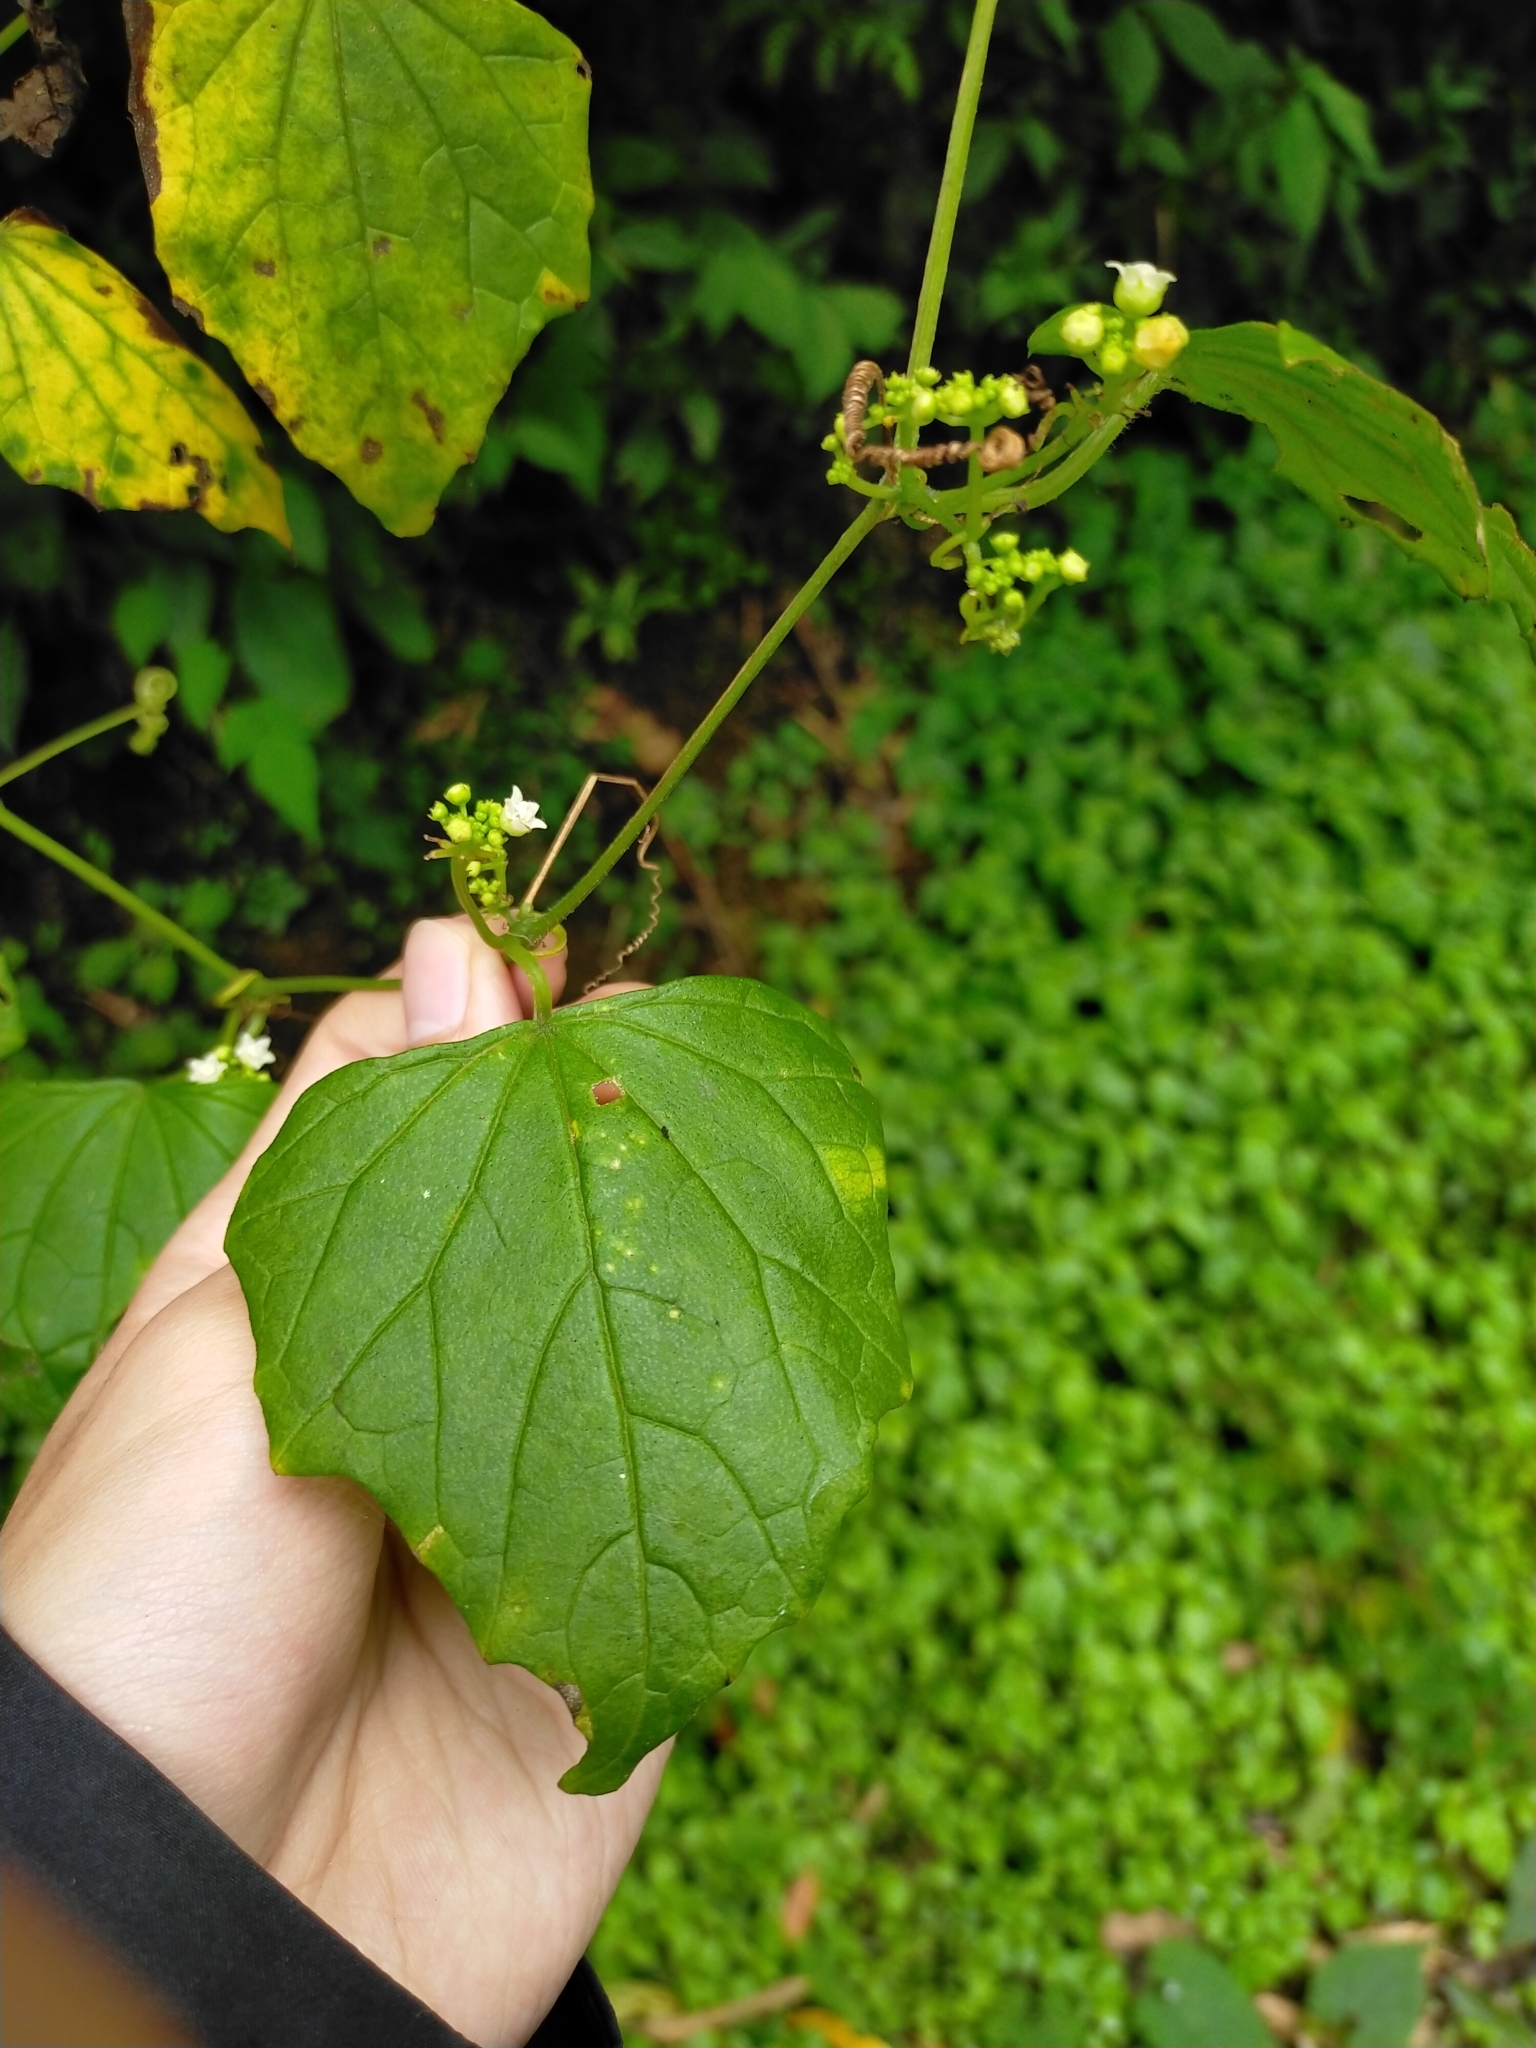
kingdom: Plantae
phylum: Tracheophyta
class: Magnoliopsida
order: Cucurbitales
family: Cucurbitaceae
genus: Zehneria
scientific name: Zehneria guamensis
